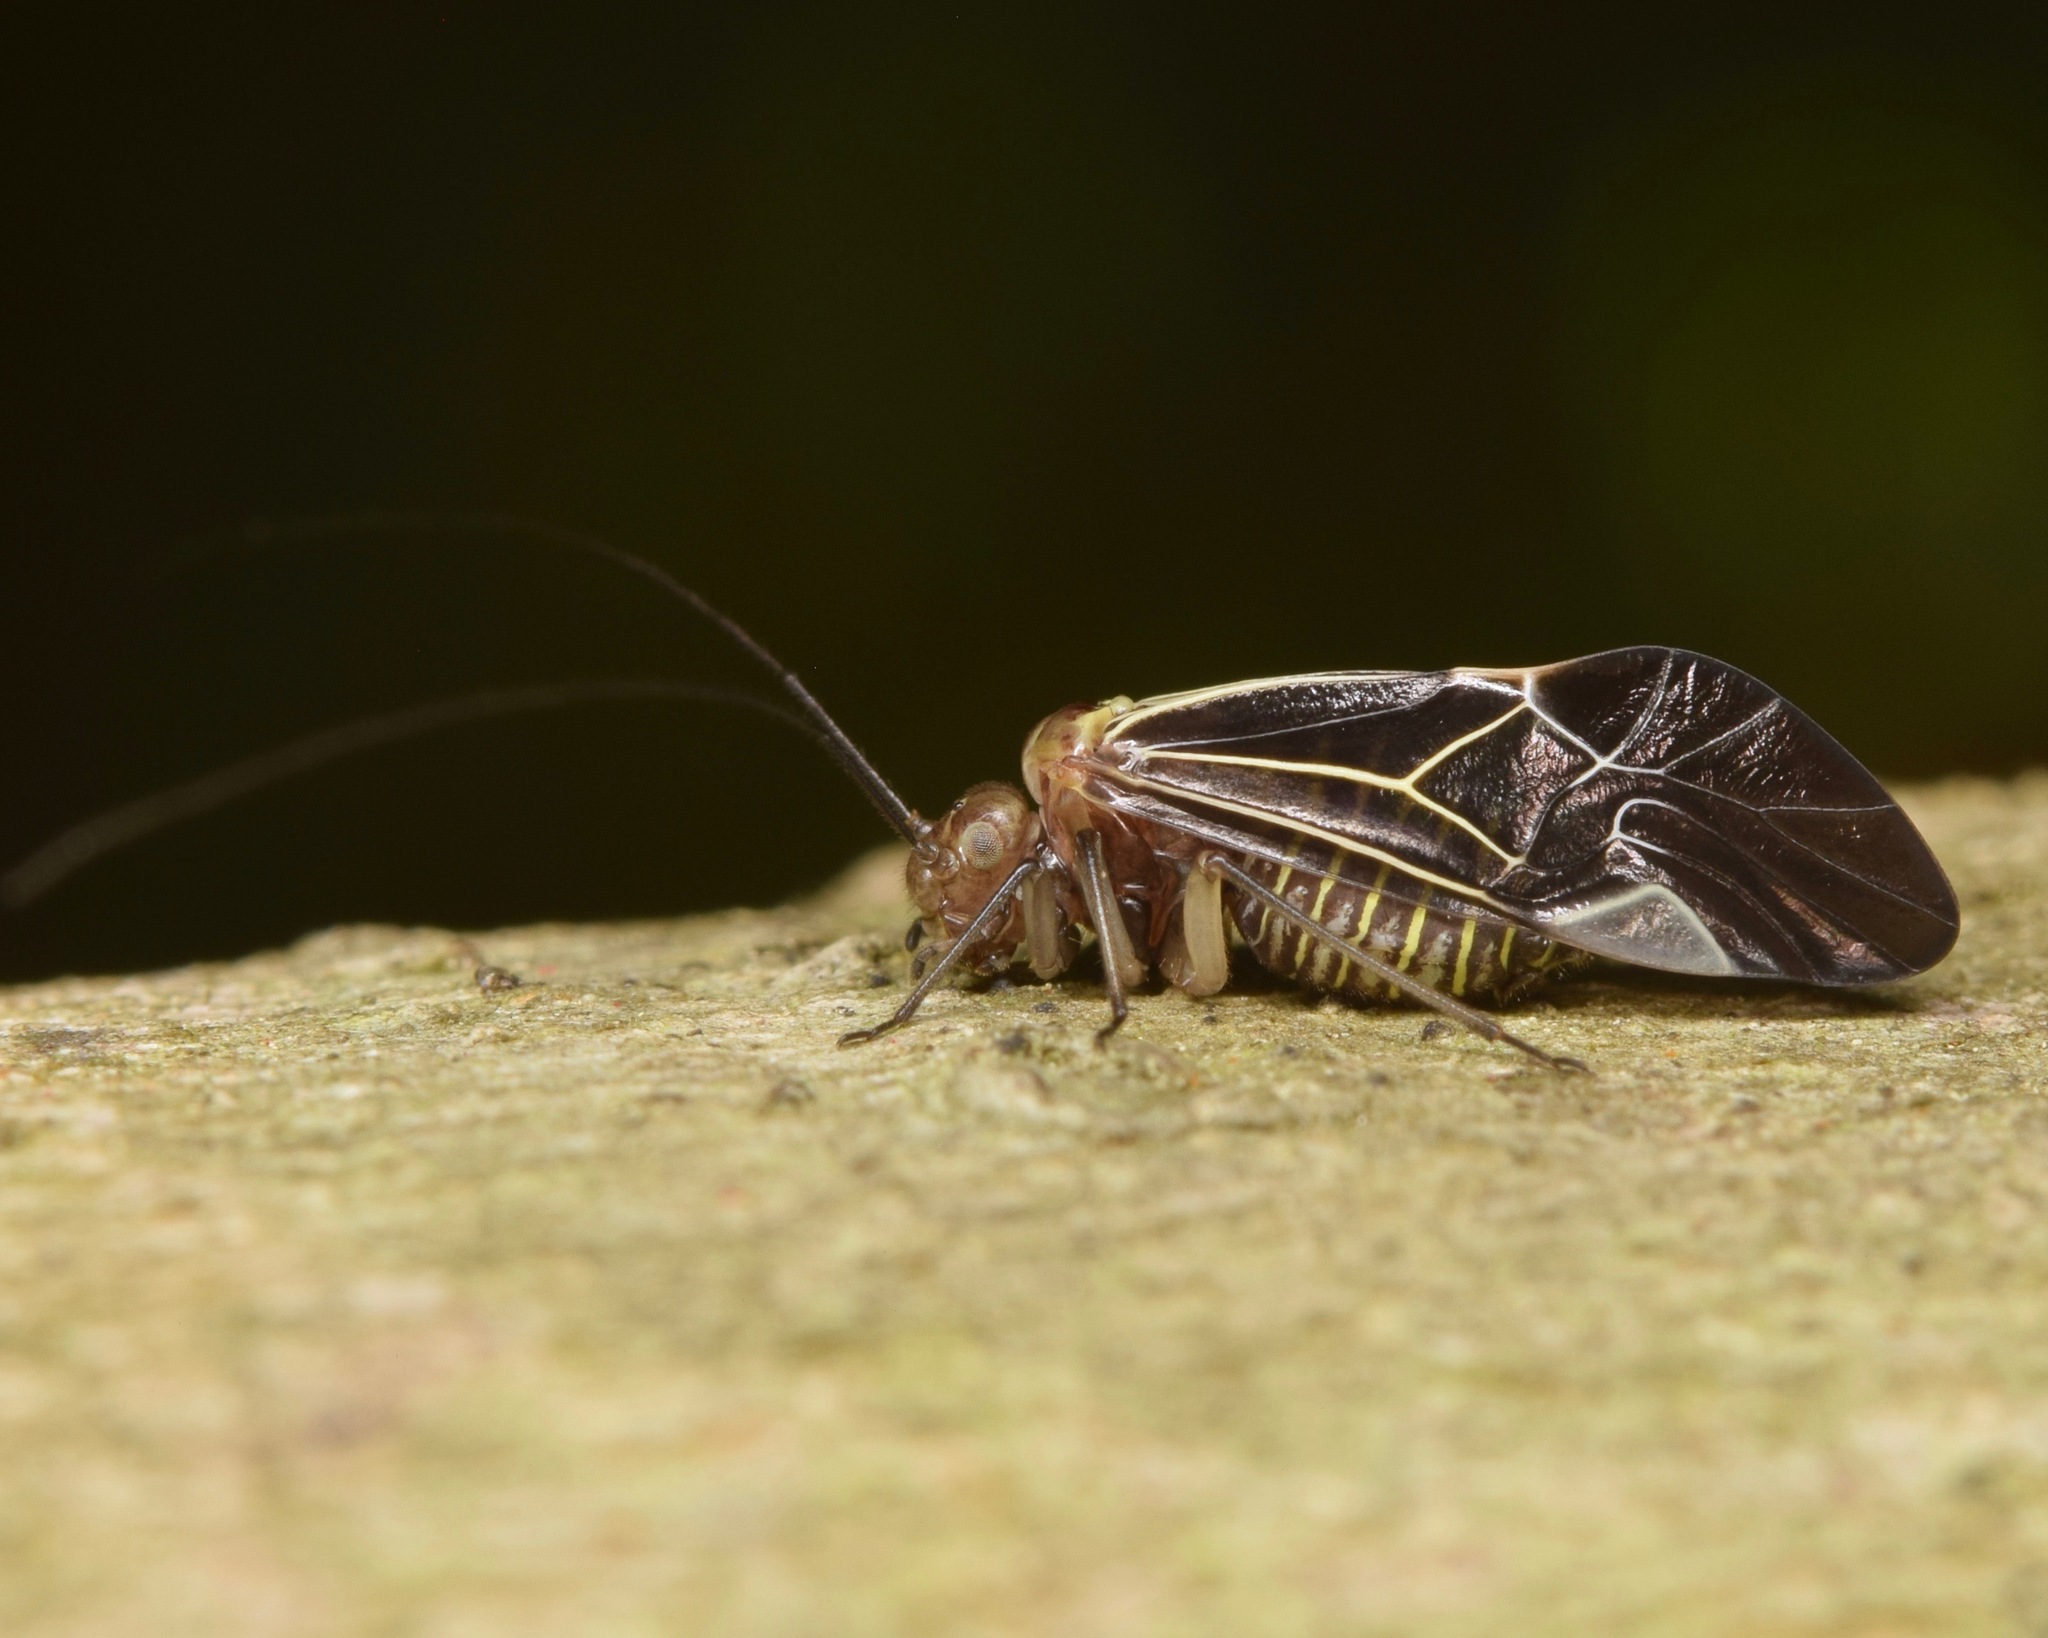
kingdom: Animalia
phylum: Arthropoda
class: Insecta
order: Psocodea
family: Psocidae
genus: Cerastipsocus
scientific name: Cerastipsocus venosus
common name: Tree cattle
